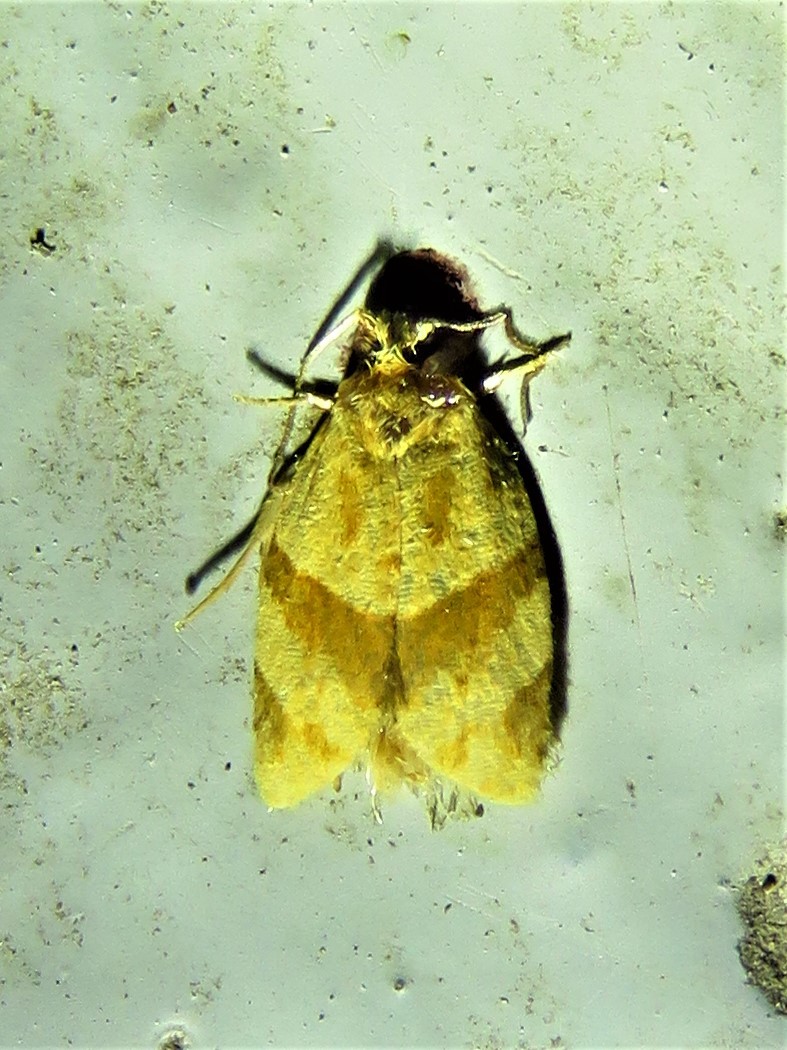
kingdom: Animalia
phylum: Arthropoda
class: Insecta
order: Lepidoptera
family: Tortricidae
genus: Clepsis
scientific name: Clepsis peritana
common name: Garden tortrix
